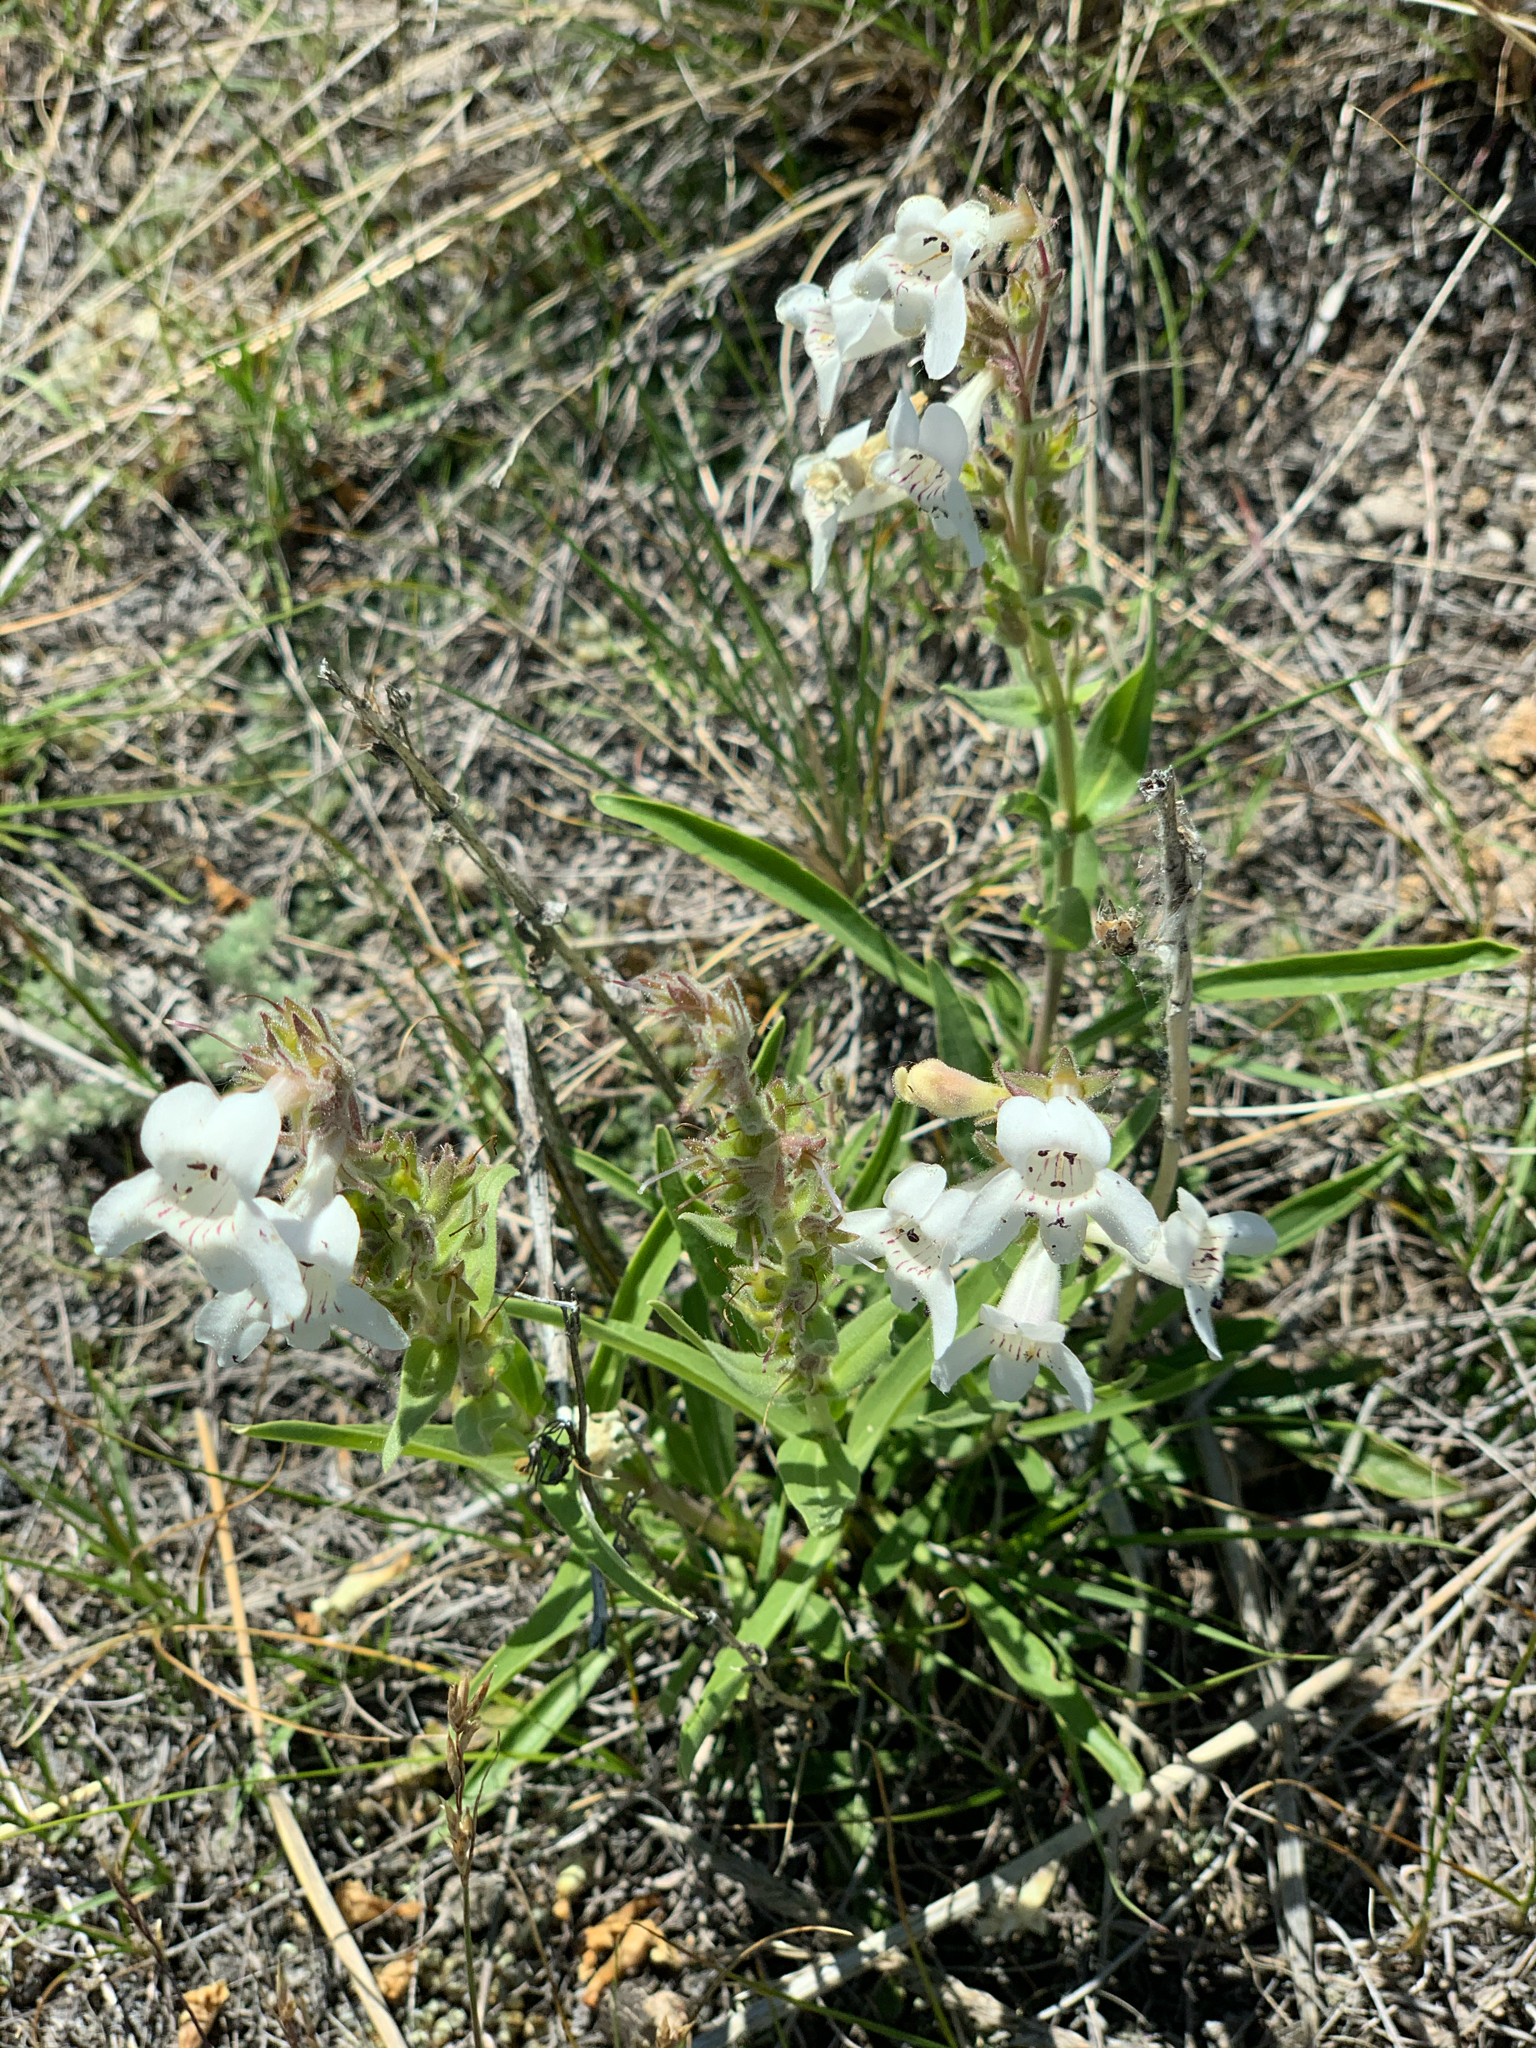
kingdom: Plantae
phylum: Tracheophyta
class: Magnoliopsida
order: Lamiales
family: Plantaginaceae
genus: Penstemon
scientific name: Penstemon albidus
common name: White beardtongue
